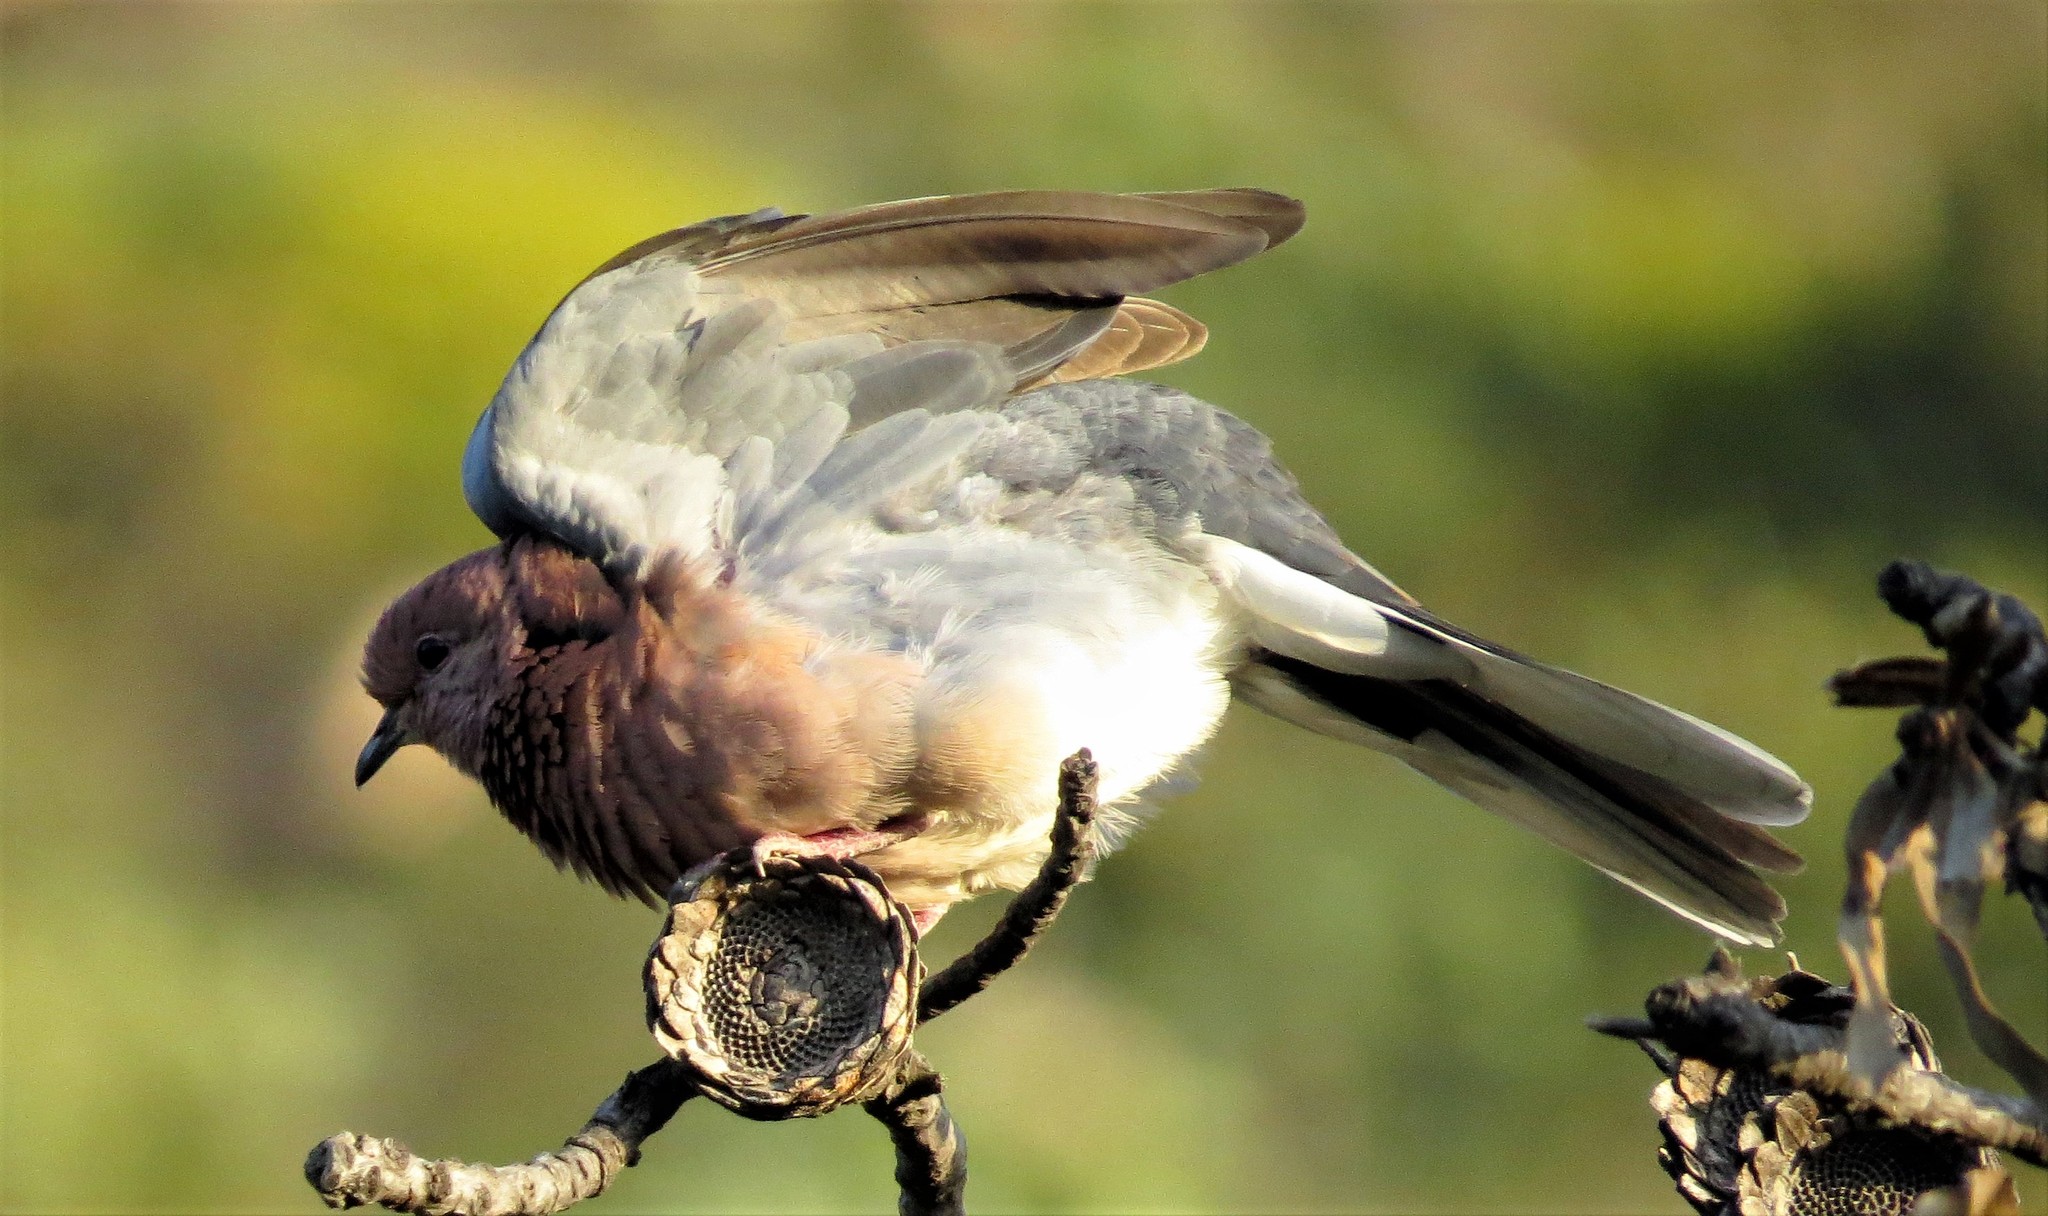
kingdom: Animalia
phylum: Chordata
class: Aves
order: Columbiformes
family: Columbidae
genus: Spilopelia
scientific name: Spilopelia senegalensis
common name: Laughing dove
